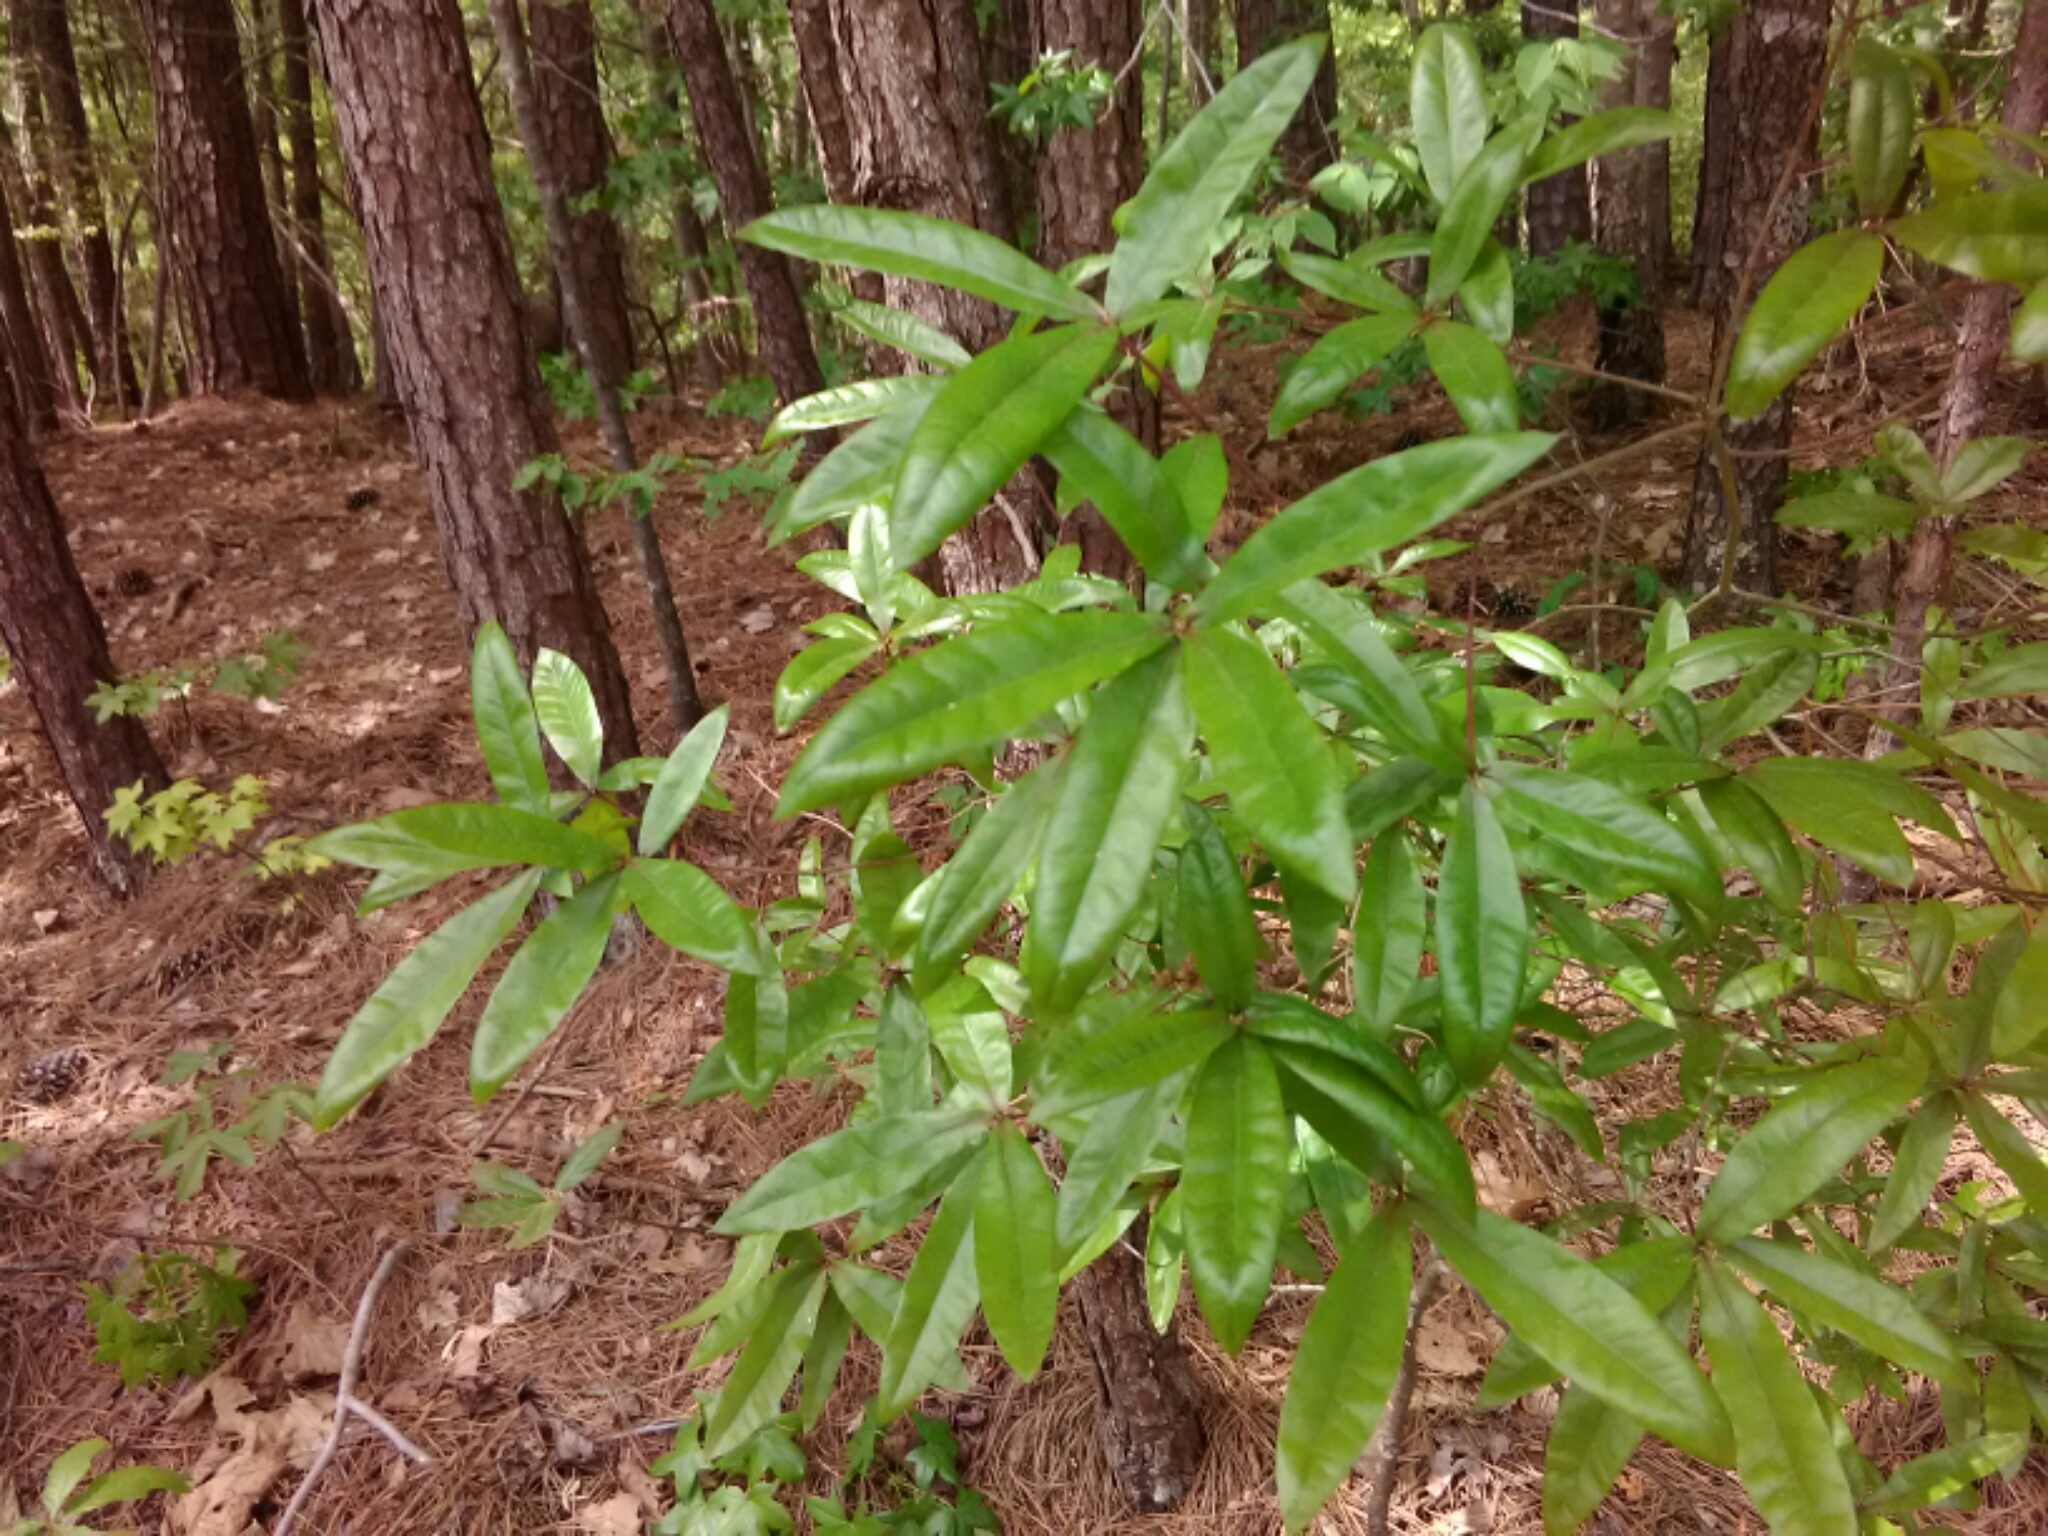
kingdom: Plantae
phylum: Tracheophyta
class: Magnoliopsida
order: Fagales
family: Fagaceae
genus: Quercus
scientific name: Quercus phellos
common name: Willow oak
